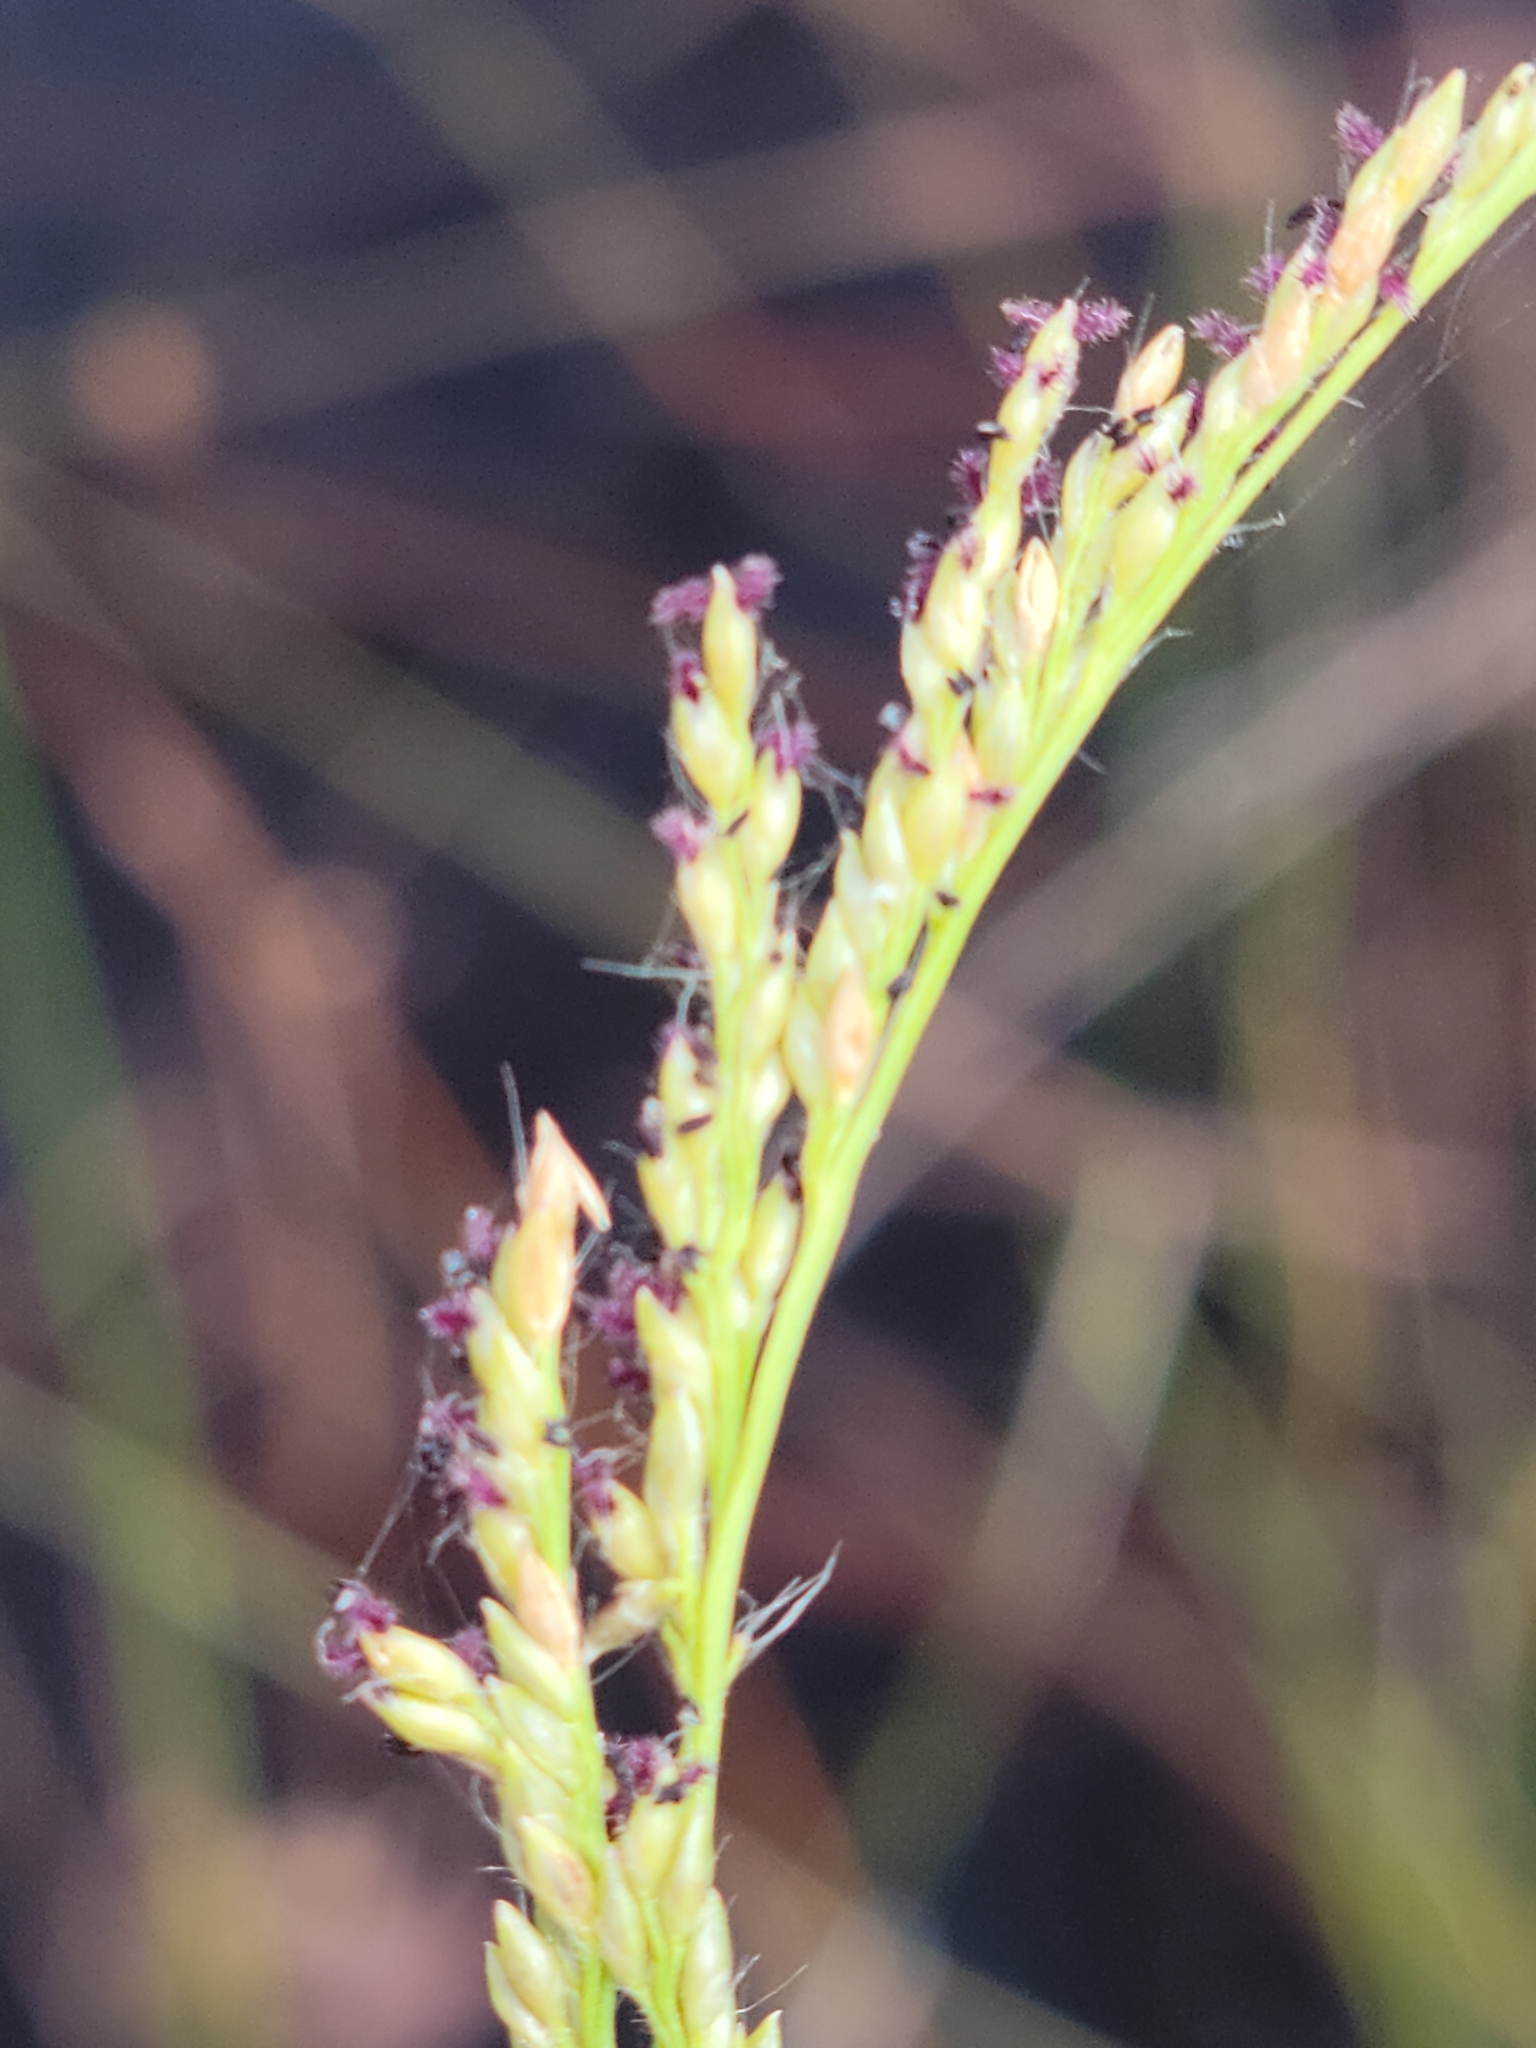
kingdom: Plantae
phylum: Tracheophyta
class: Liliopsida
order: Poales
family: Poaceae
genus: Coleataenia
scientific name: Coleataenia tenera
